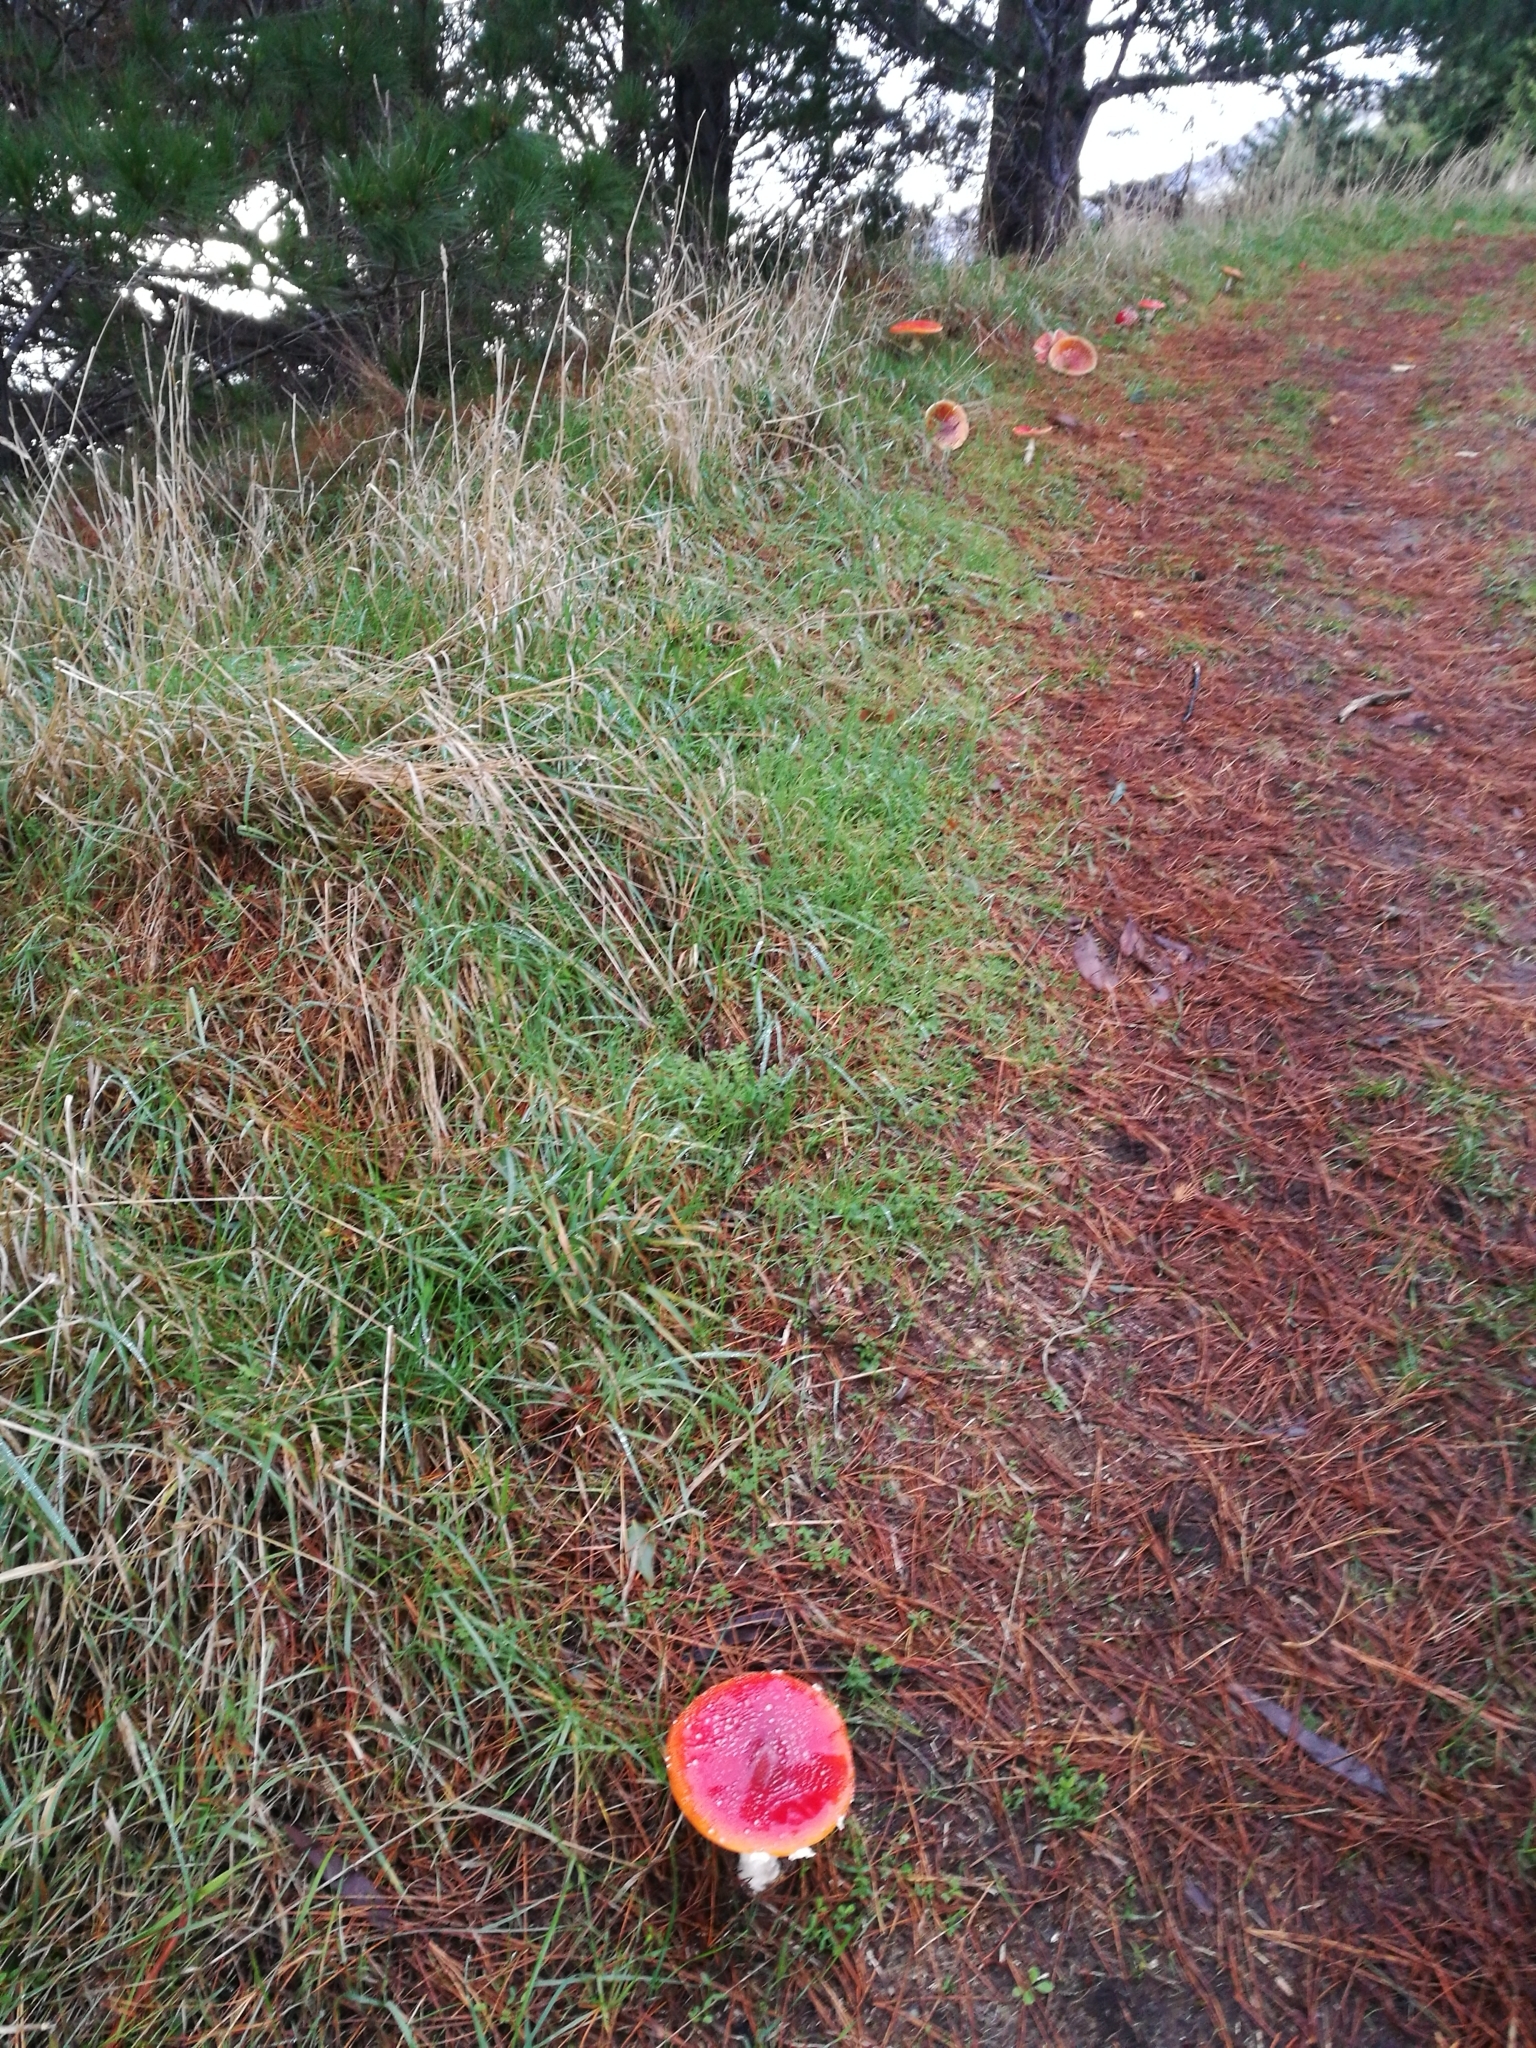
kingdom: Fungi
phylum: Basidiomycota
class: Agaricomycetes
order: Agaricales
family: Amanitaceae
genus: Amanita
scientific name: Amanita muscaria
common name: Fly agaric
